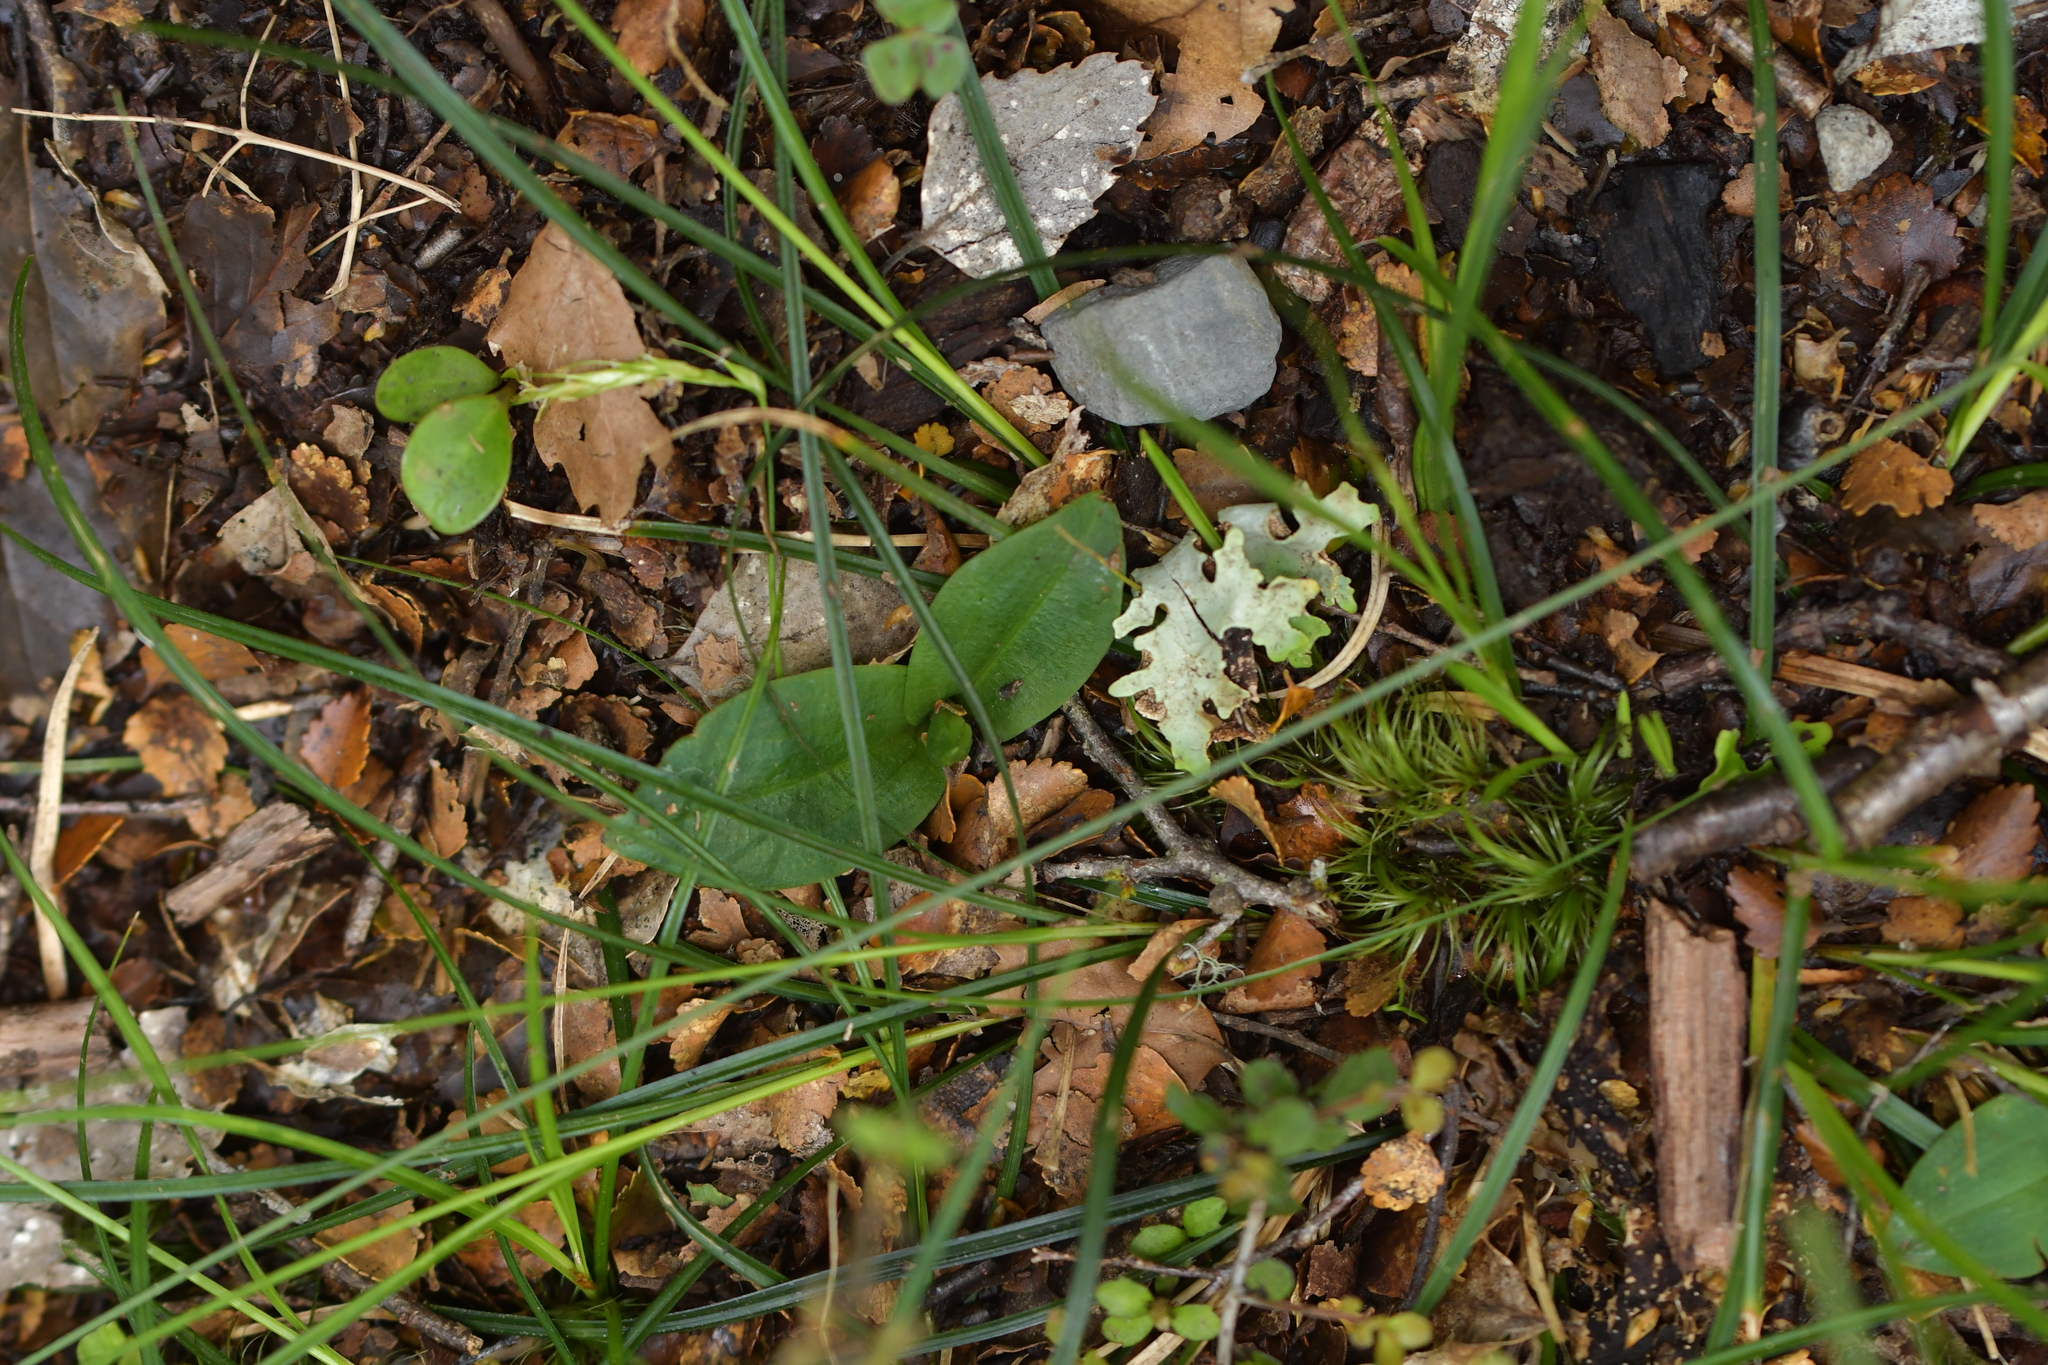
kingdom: Plantae
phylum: Tracheophyta
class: Liliopsida
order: Asparagales
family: Orchidaceae
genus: Chiloglottis
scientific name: Chiloglottis cornuta
